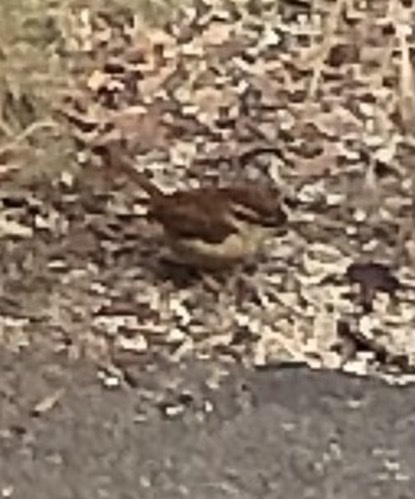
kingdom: Animalia
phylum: Chordata
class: Aves
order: Passeriformes
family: Troglodytidae
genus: Thryothorus
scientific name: Thryothorus ludovicianus
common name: Carolina wren
